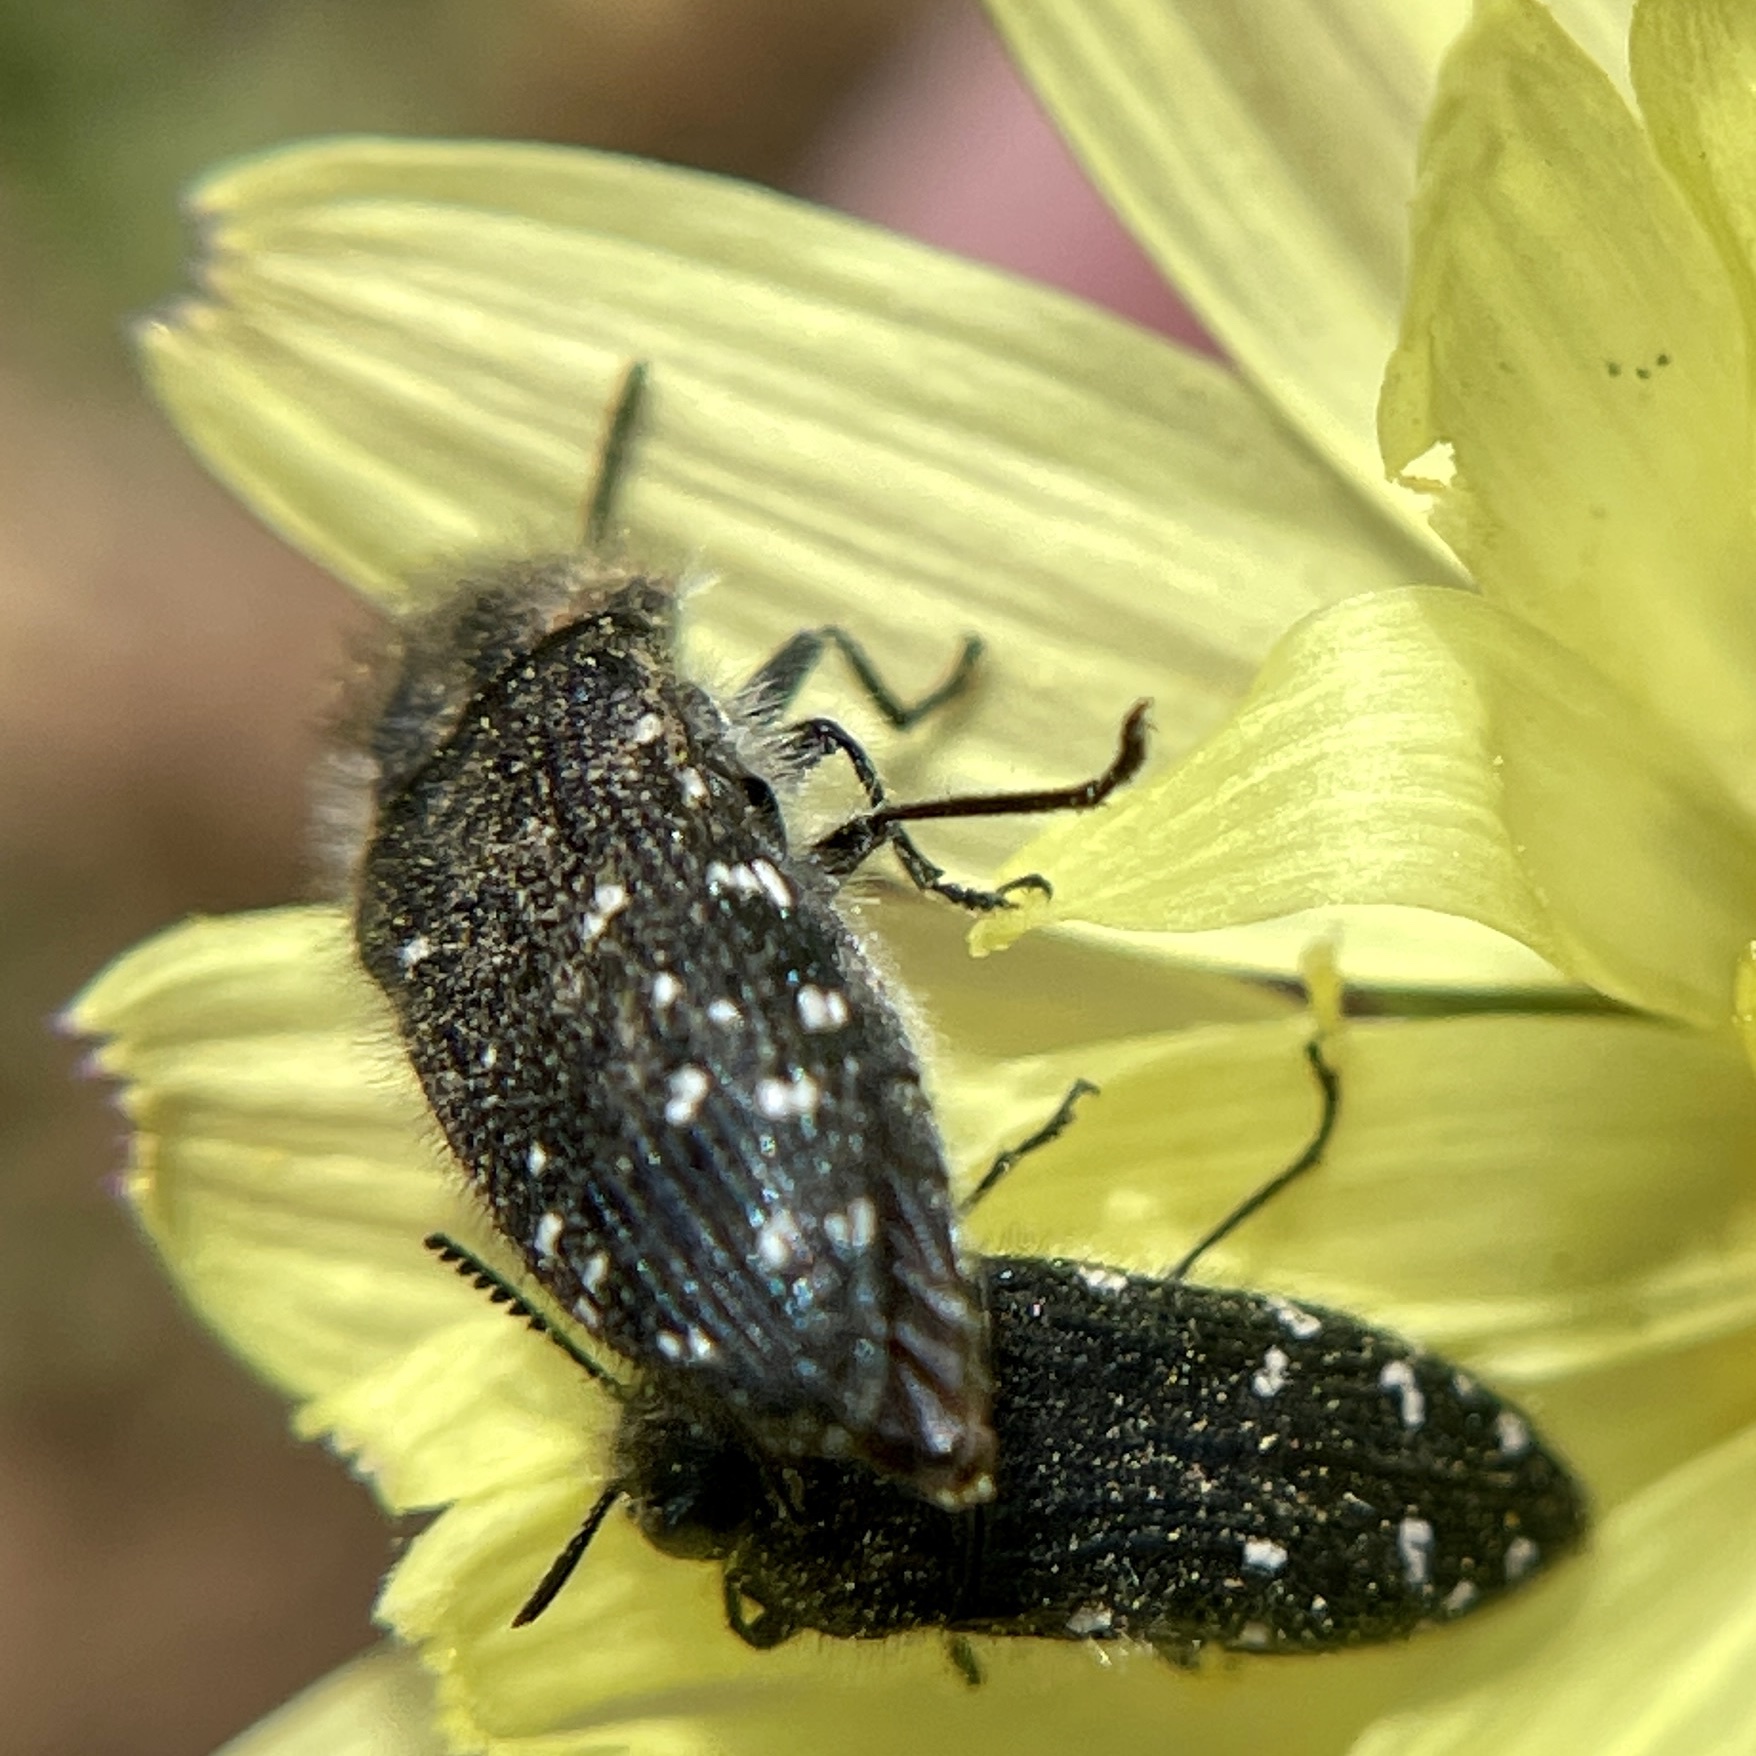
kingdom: Animalia
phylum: Arthropoda
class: Insecta
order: Coleoptera
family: Buprestidae
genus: Acmaeodera
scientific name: Acmaeodera ornatoides
